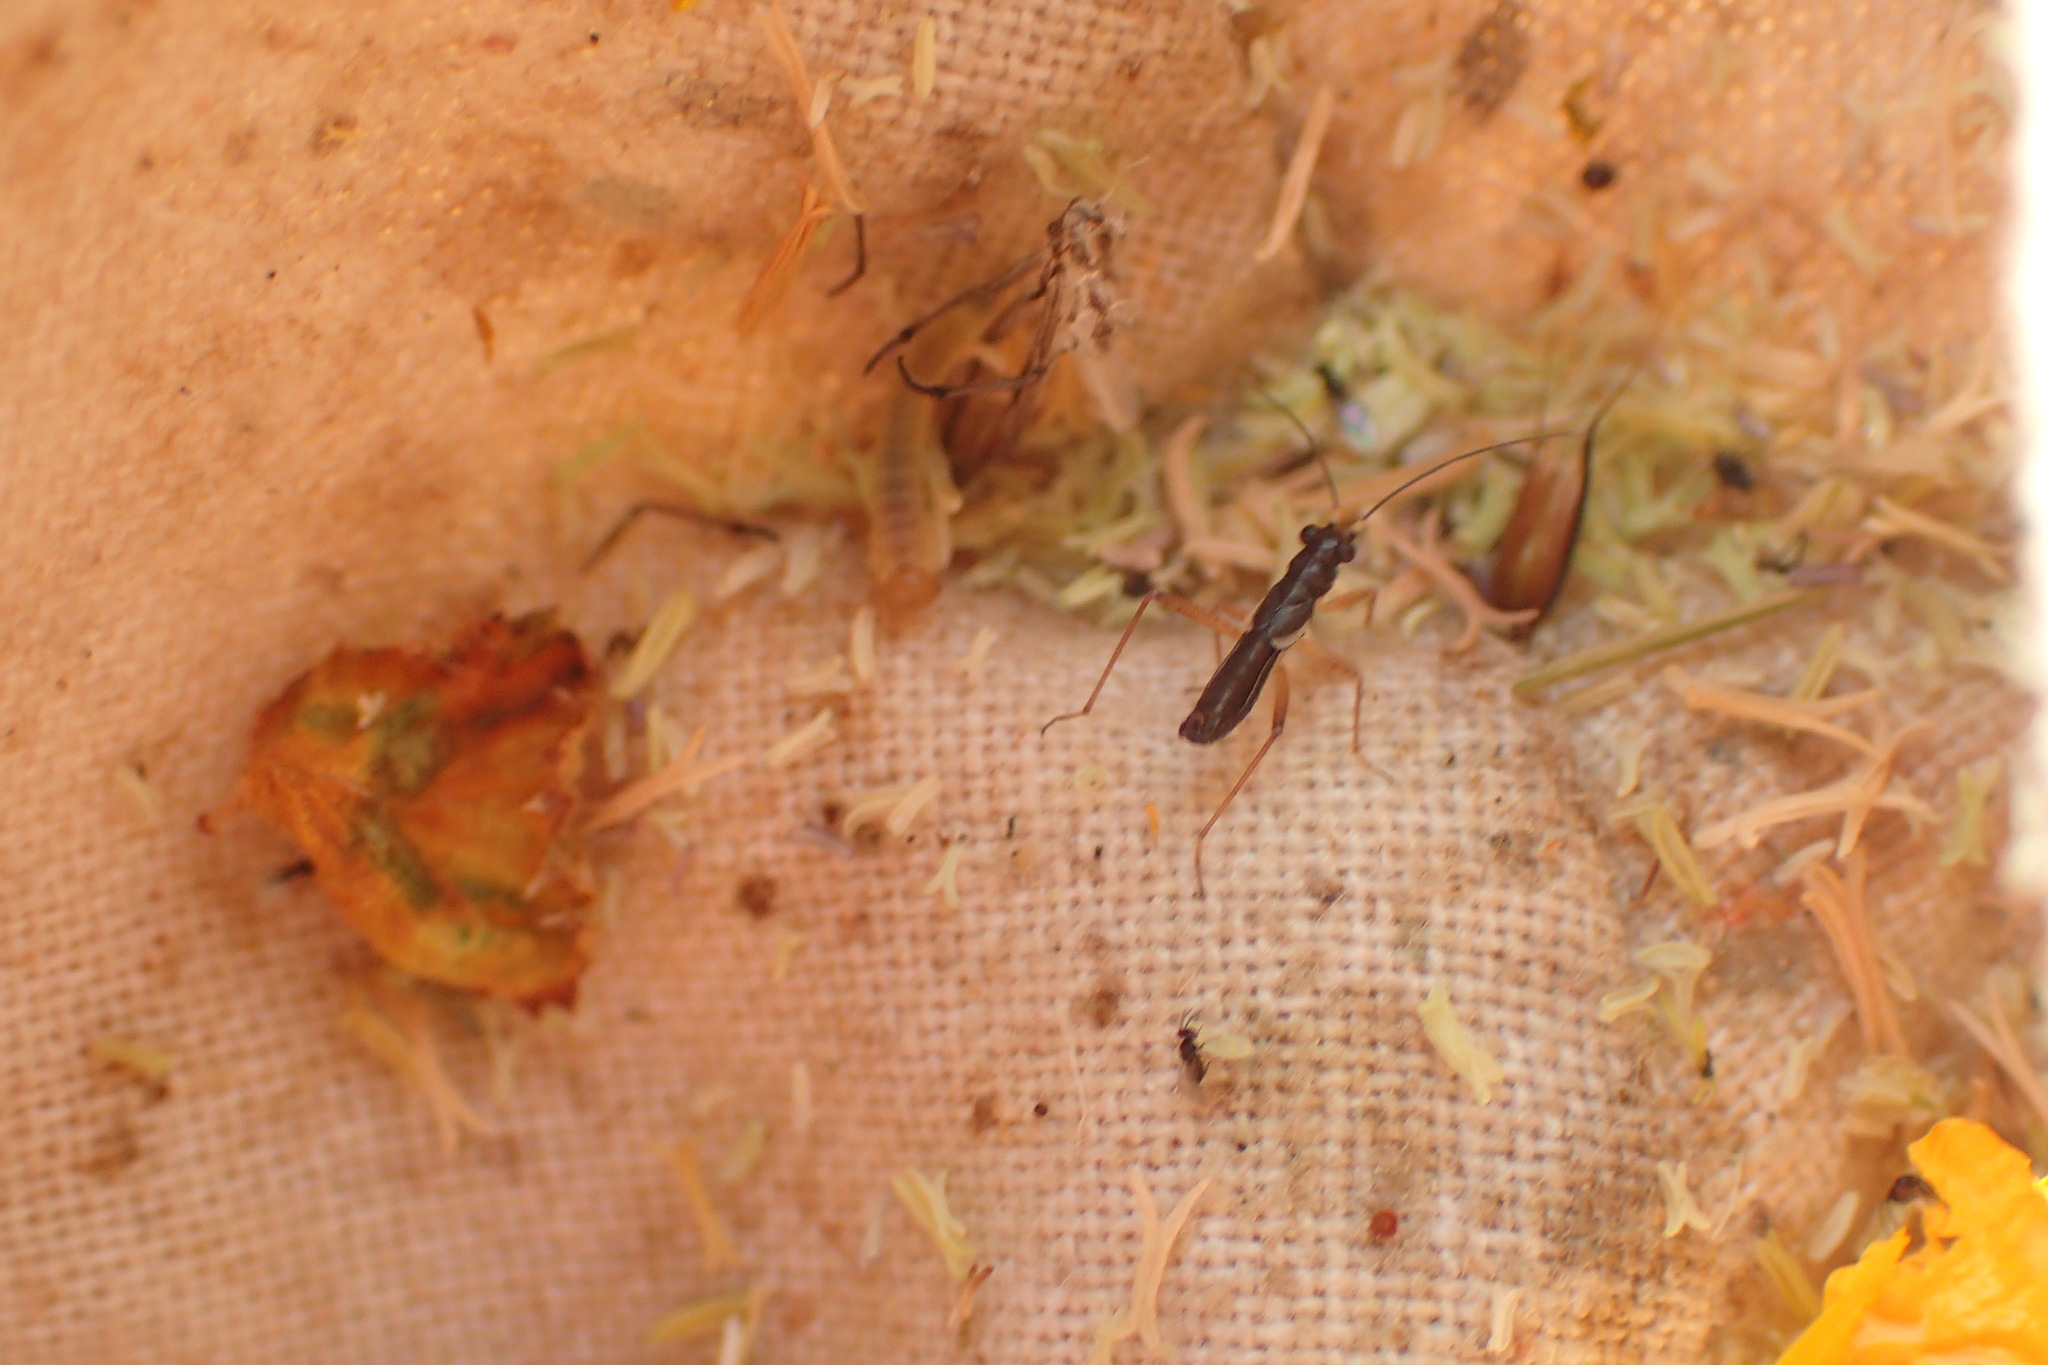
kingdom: Animalia
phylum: Arthropoda
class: Insecta
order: Hemiptera
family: Miridae
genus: Pithanus
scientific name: Pithanus maerkelii
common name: Plant bug
